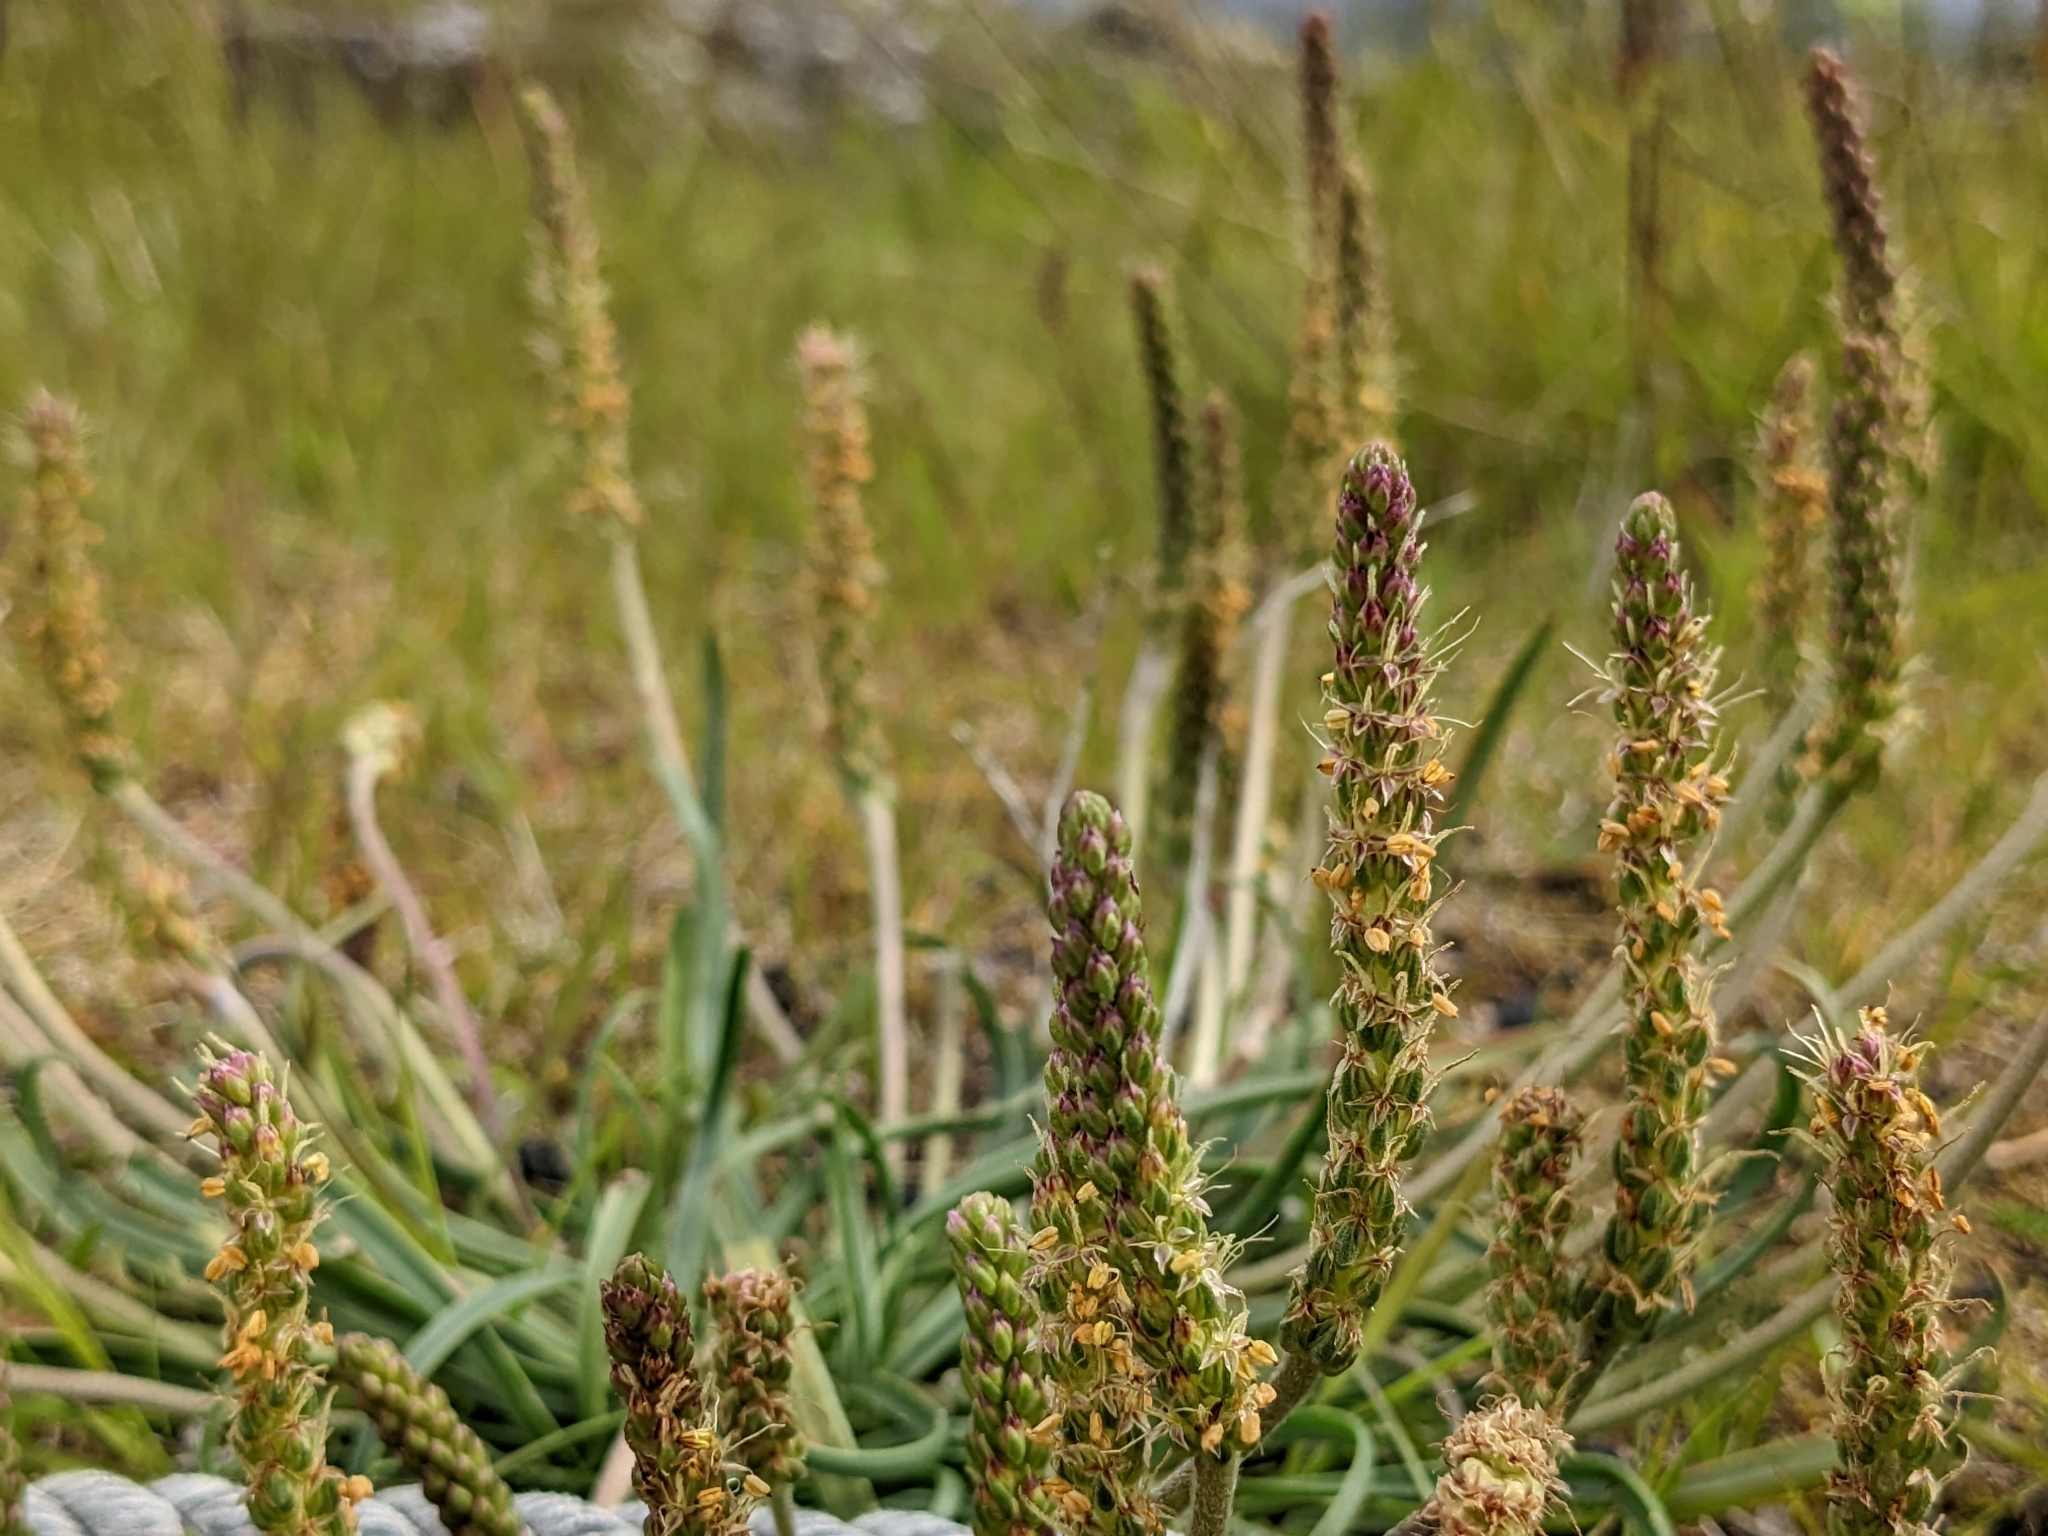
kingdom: Plantae
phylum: Tracheophyta
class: Magnoliopsida
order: Lamiales
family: Plantaginaceae
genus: Plantago
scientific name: Plantago maritima
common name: Sea plantain
